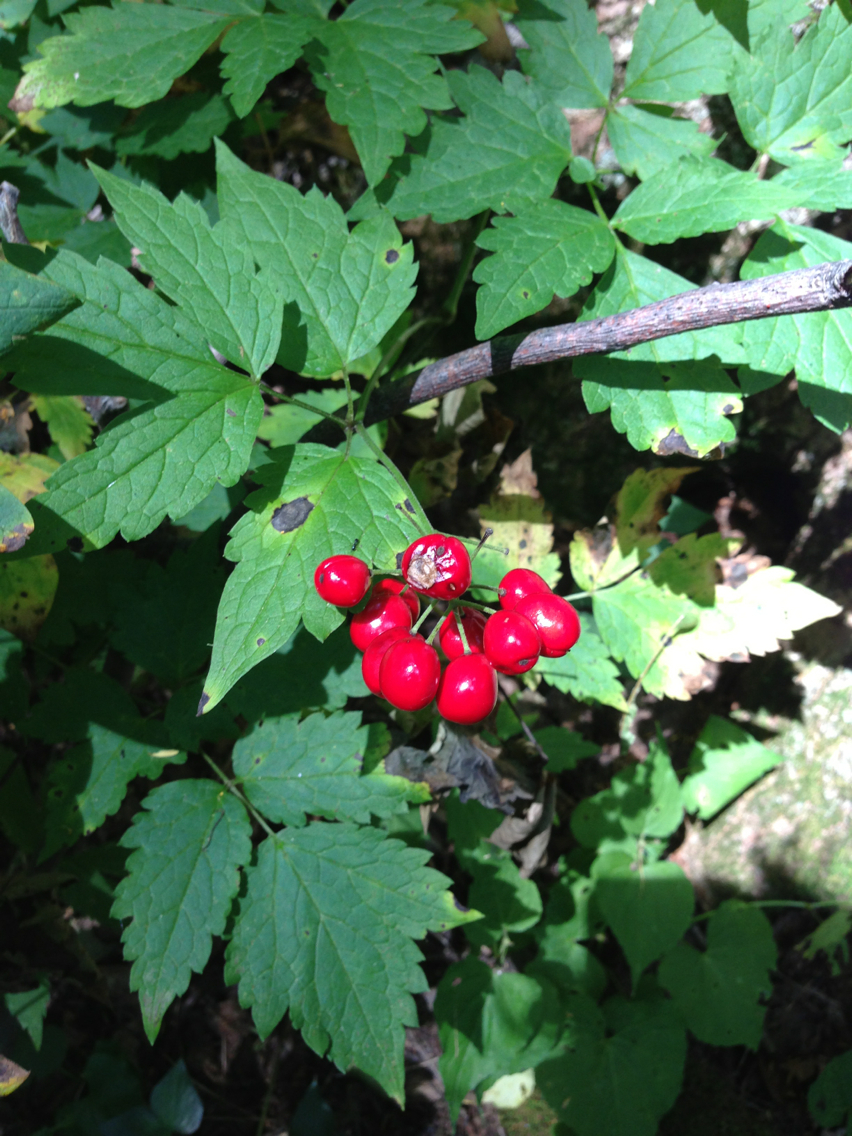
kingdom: Plantae
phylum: Tracheophyta
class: Magnoliopsida
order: Ranunculales
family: Ranunculaceae
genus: Actaea
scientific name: Actaea rubra
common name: Red baneberry
